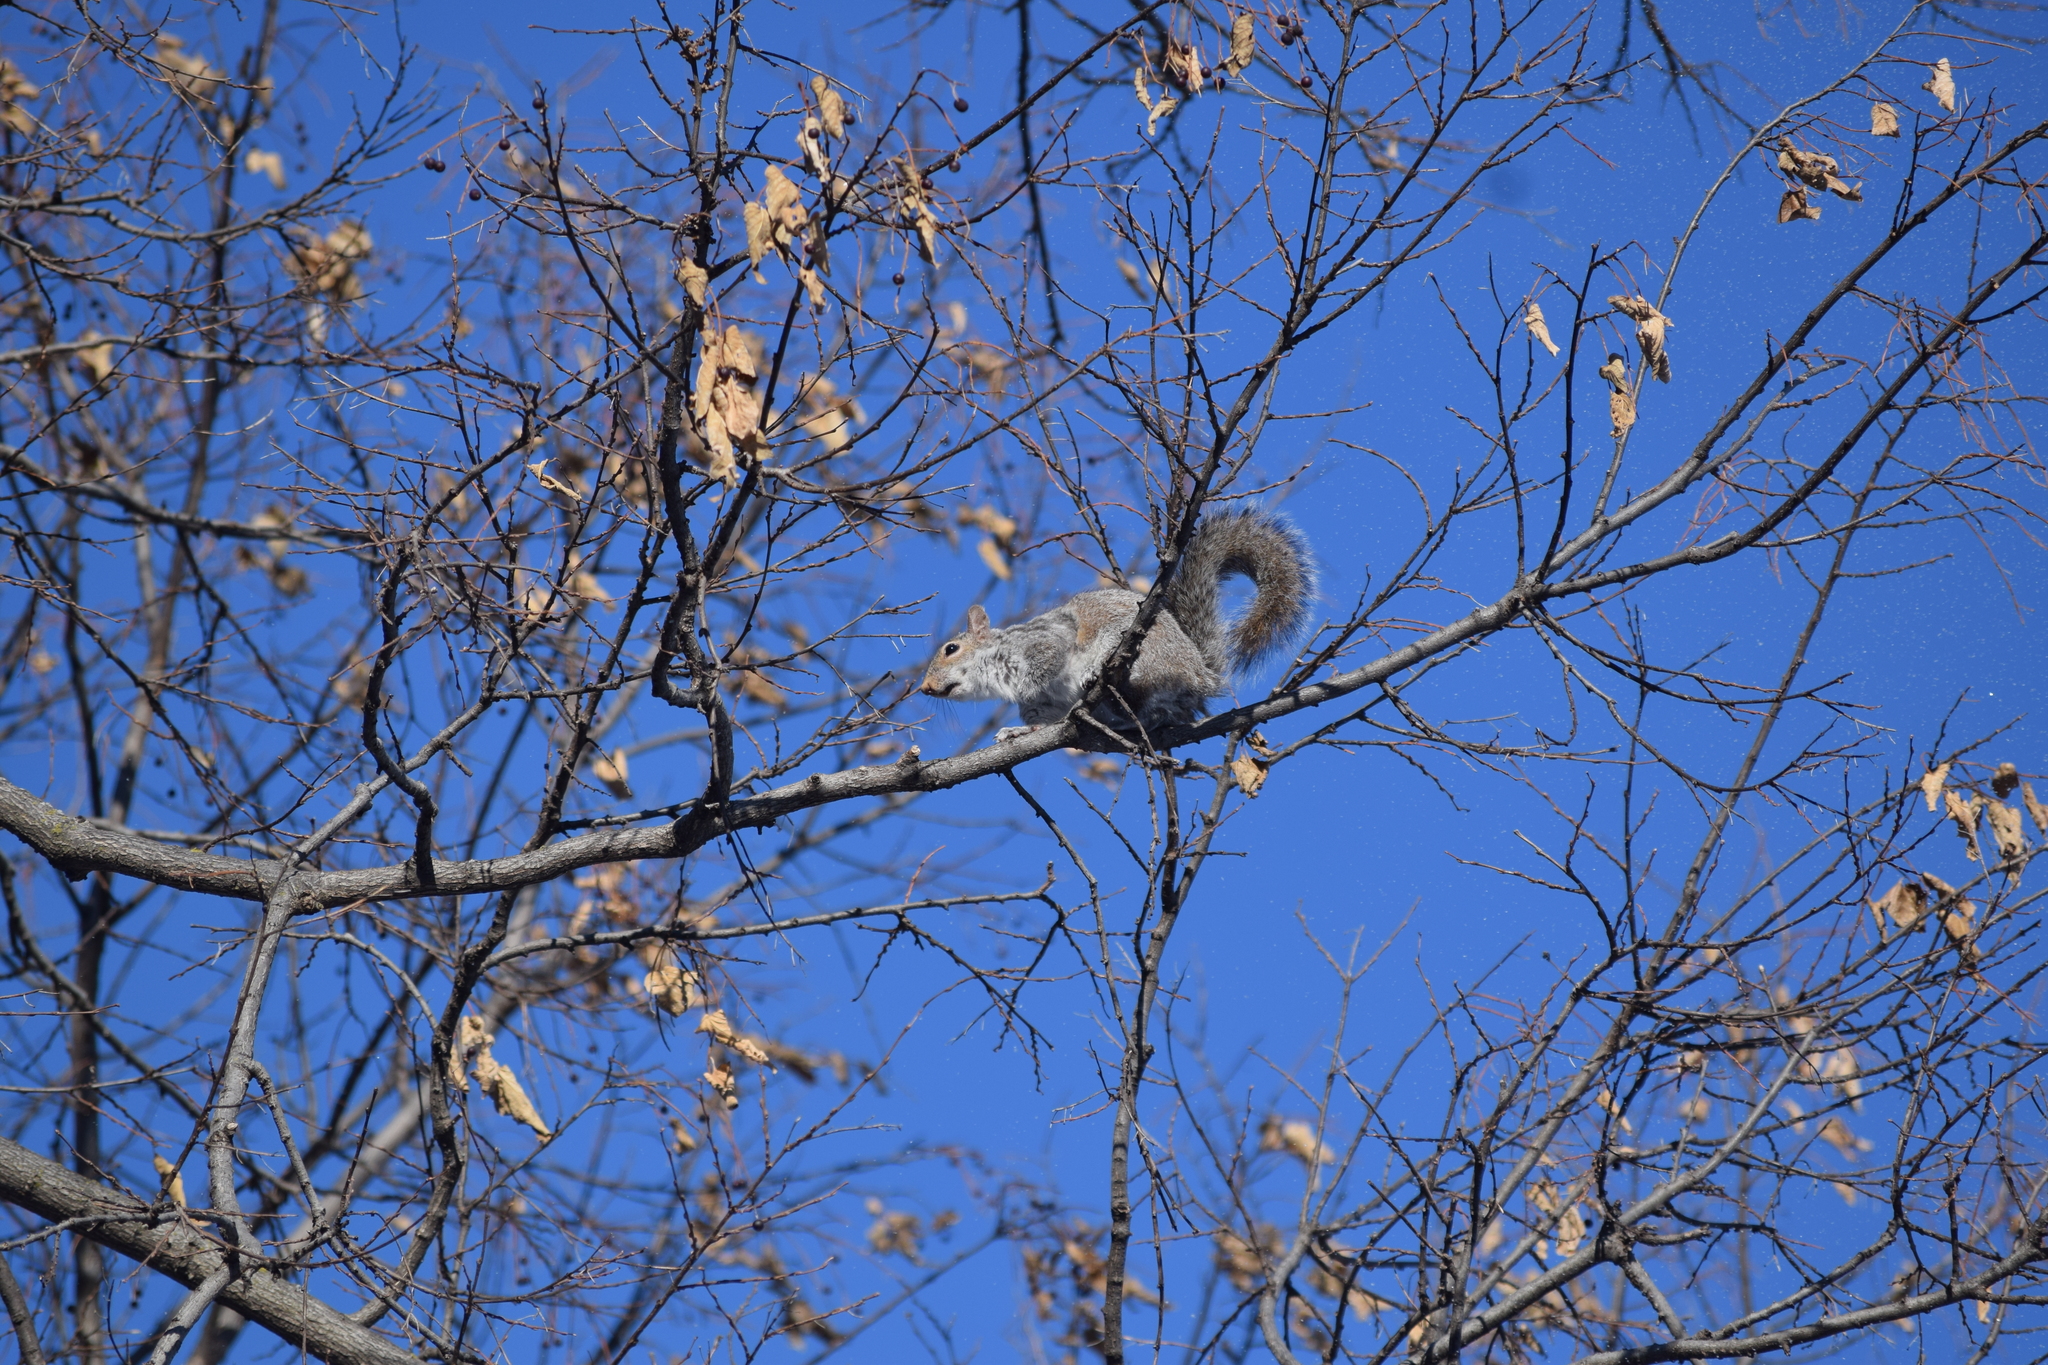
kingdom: Animalia
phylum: Chordata
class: Mammalia
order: Rodentia
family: Sciuridae
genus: Sciurus
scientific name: Sciurus carolinensis
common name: Eastern gray squirrel
